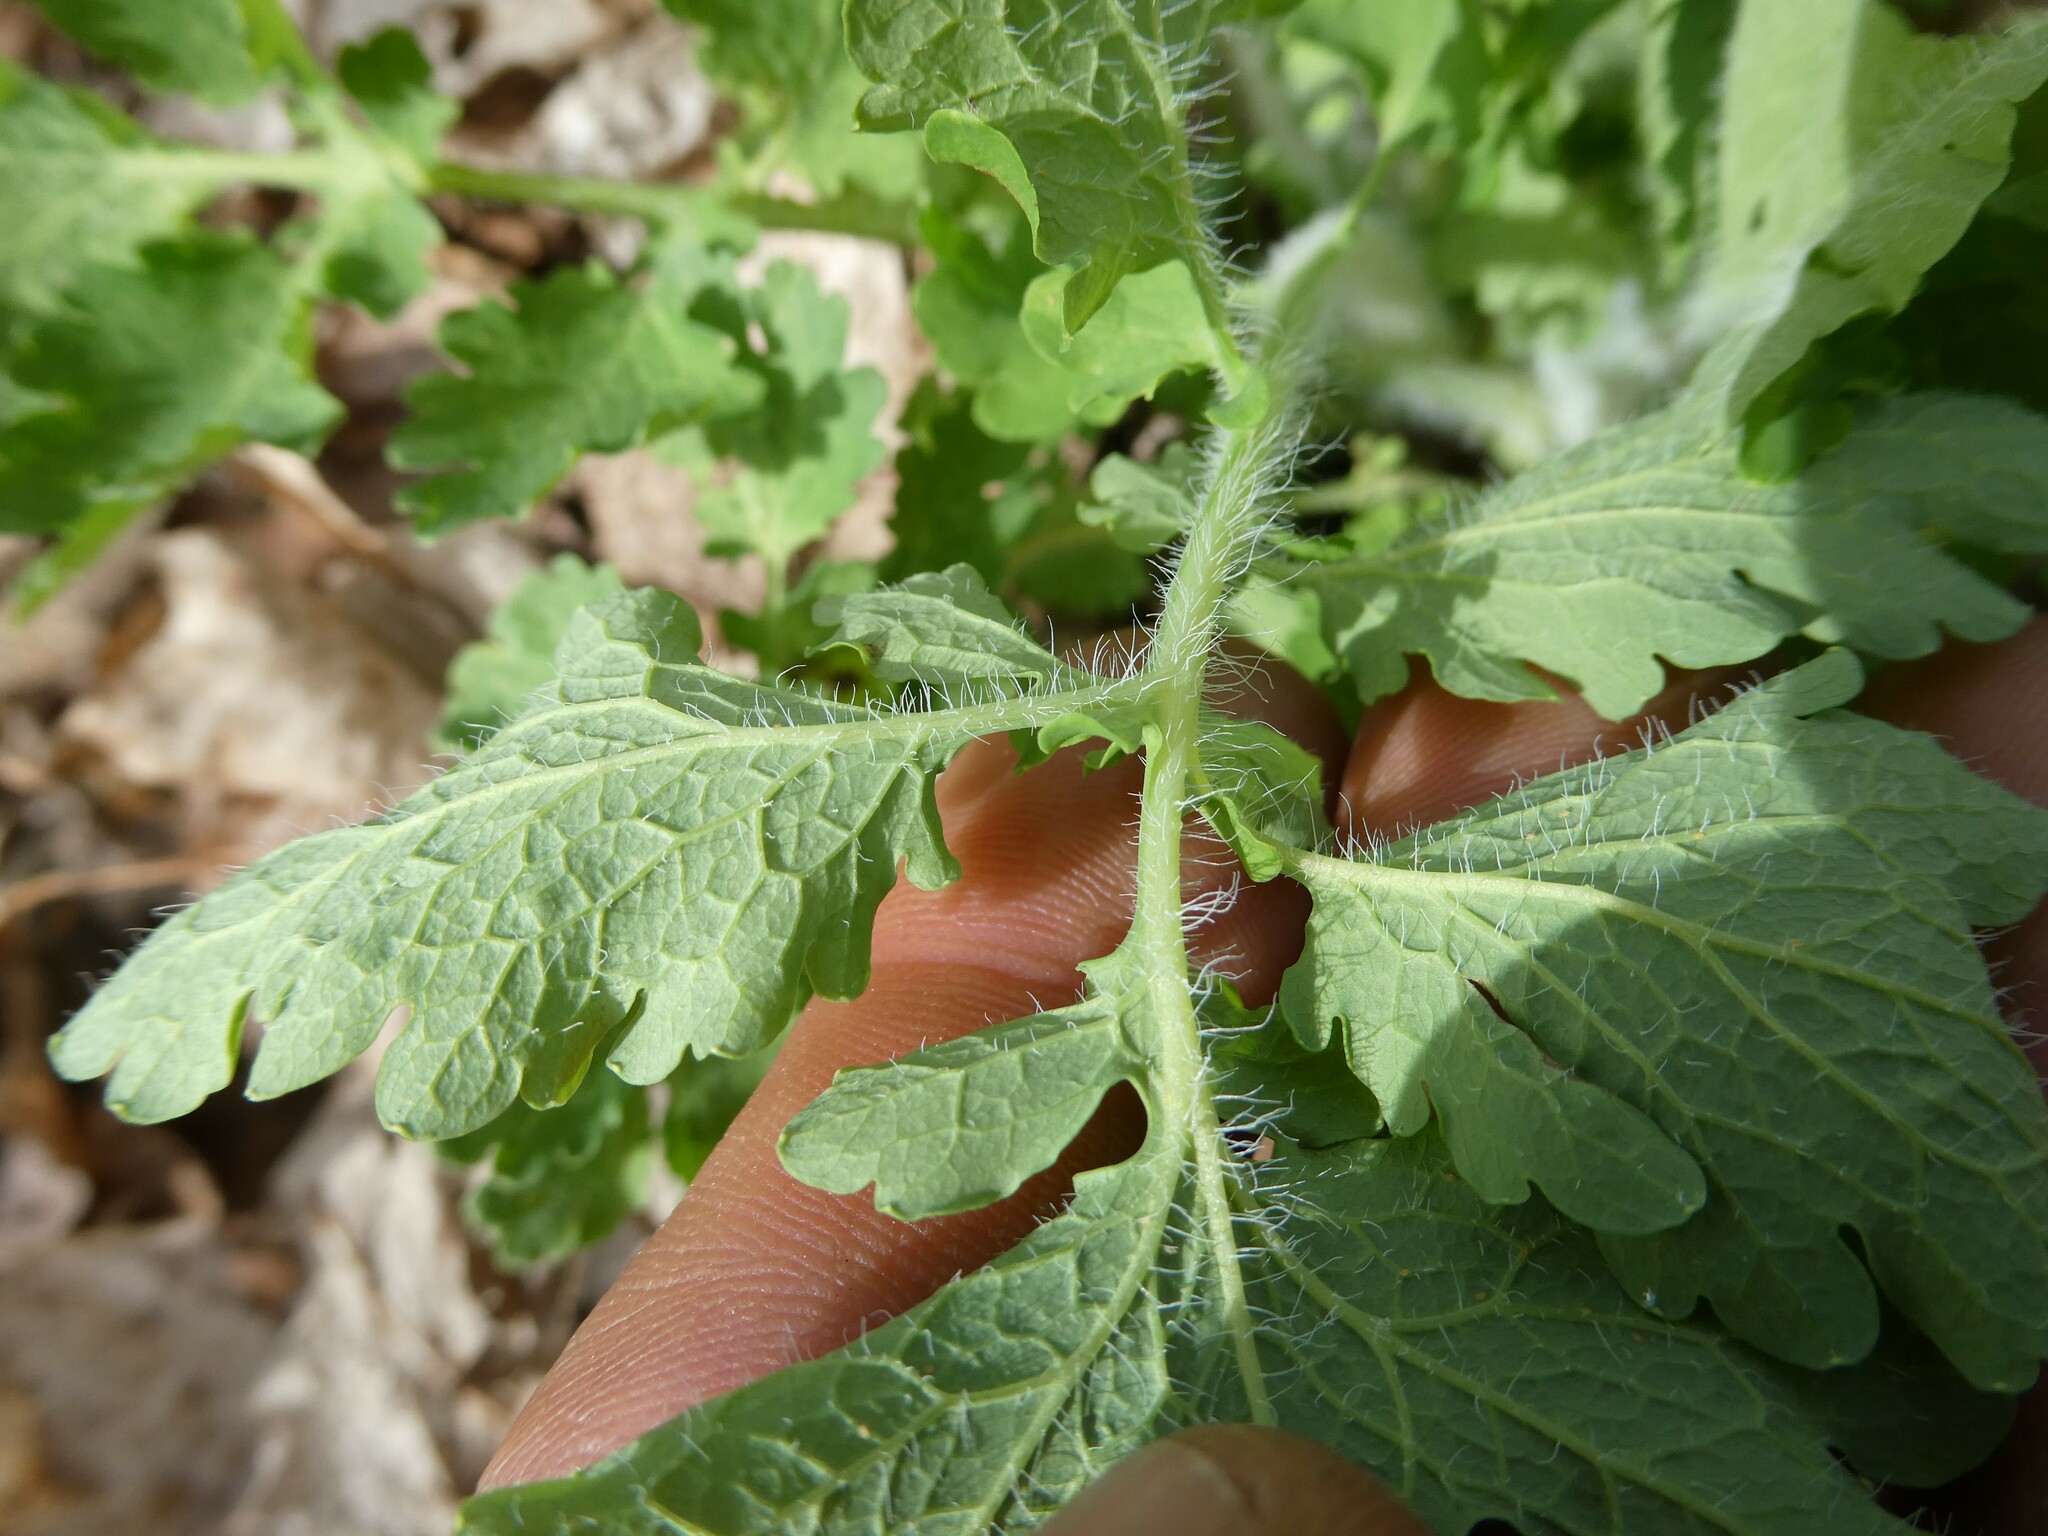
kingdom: Plantae
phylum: Tracheophyta
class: Magnoliopsida
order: Ranunculales
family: Papaveraceae
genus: Chelidonium
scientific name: Chelidonium majus
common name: Greater celandine
